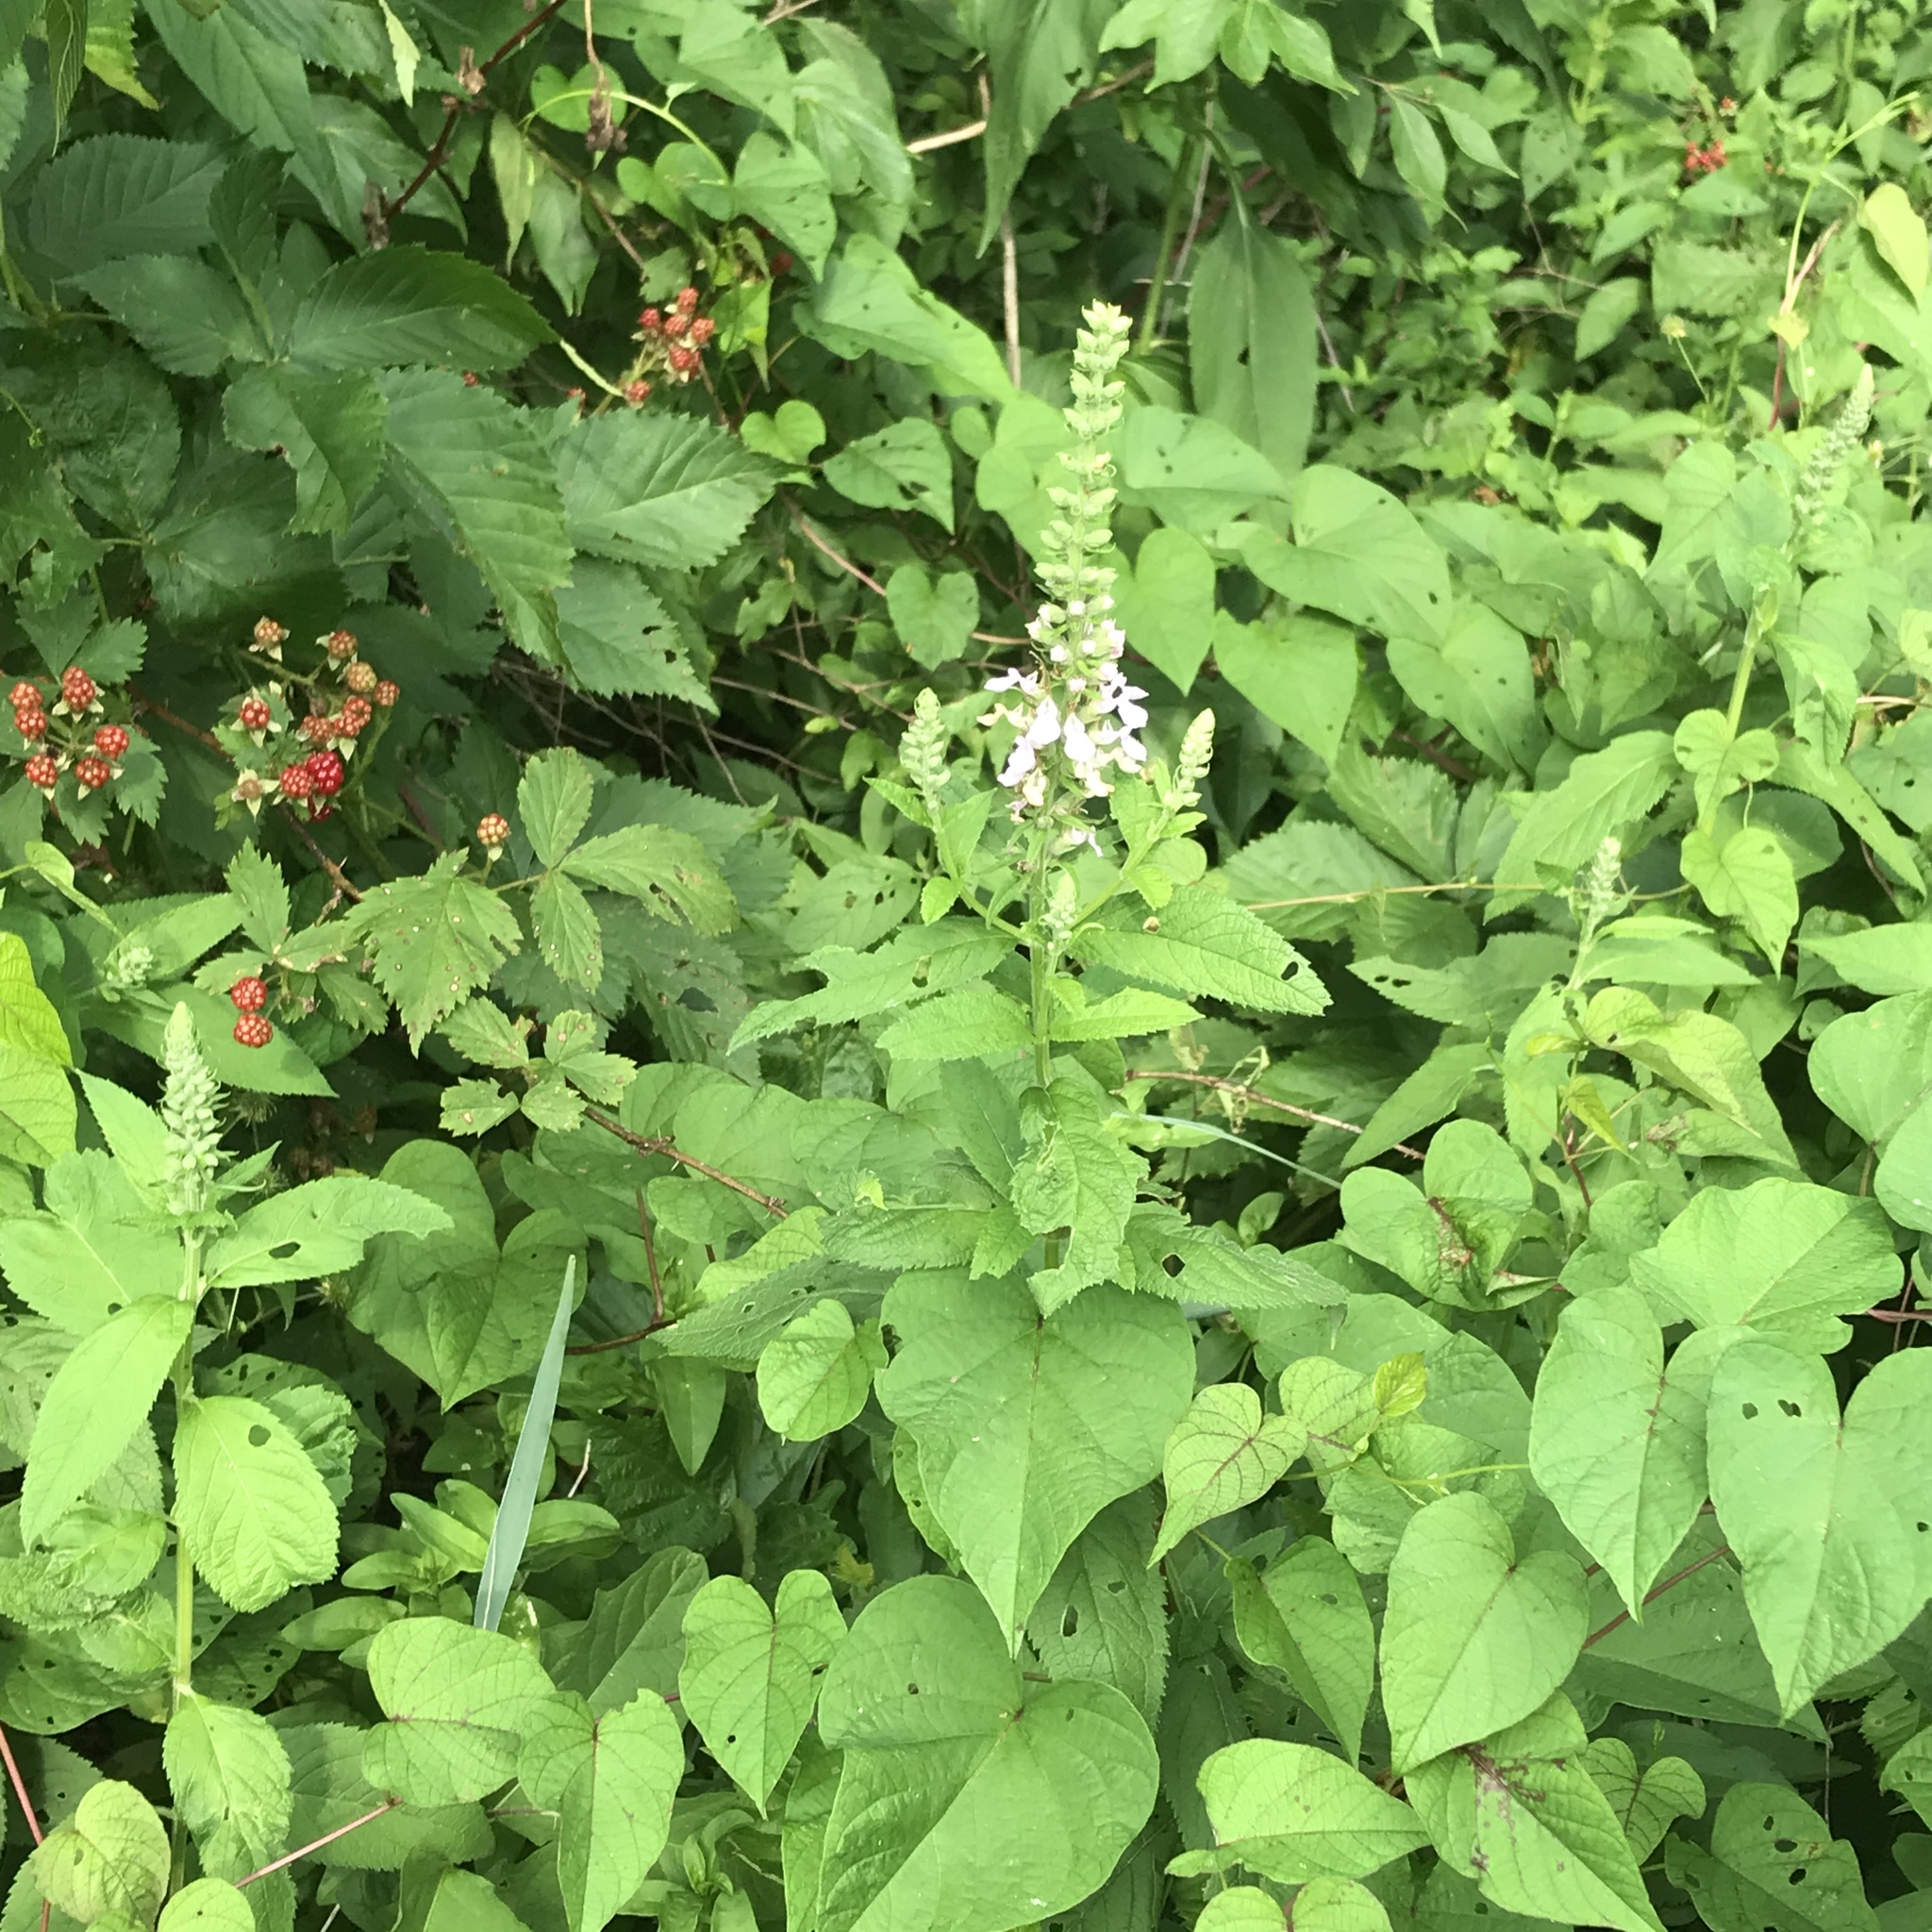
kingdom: Plantae
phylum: Tracheophyta
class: Magnoliopsida
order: Lamiales
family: Lamiaceae
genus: Teucrium
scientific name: Teucrium canadense
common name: American germander
